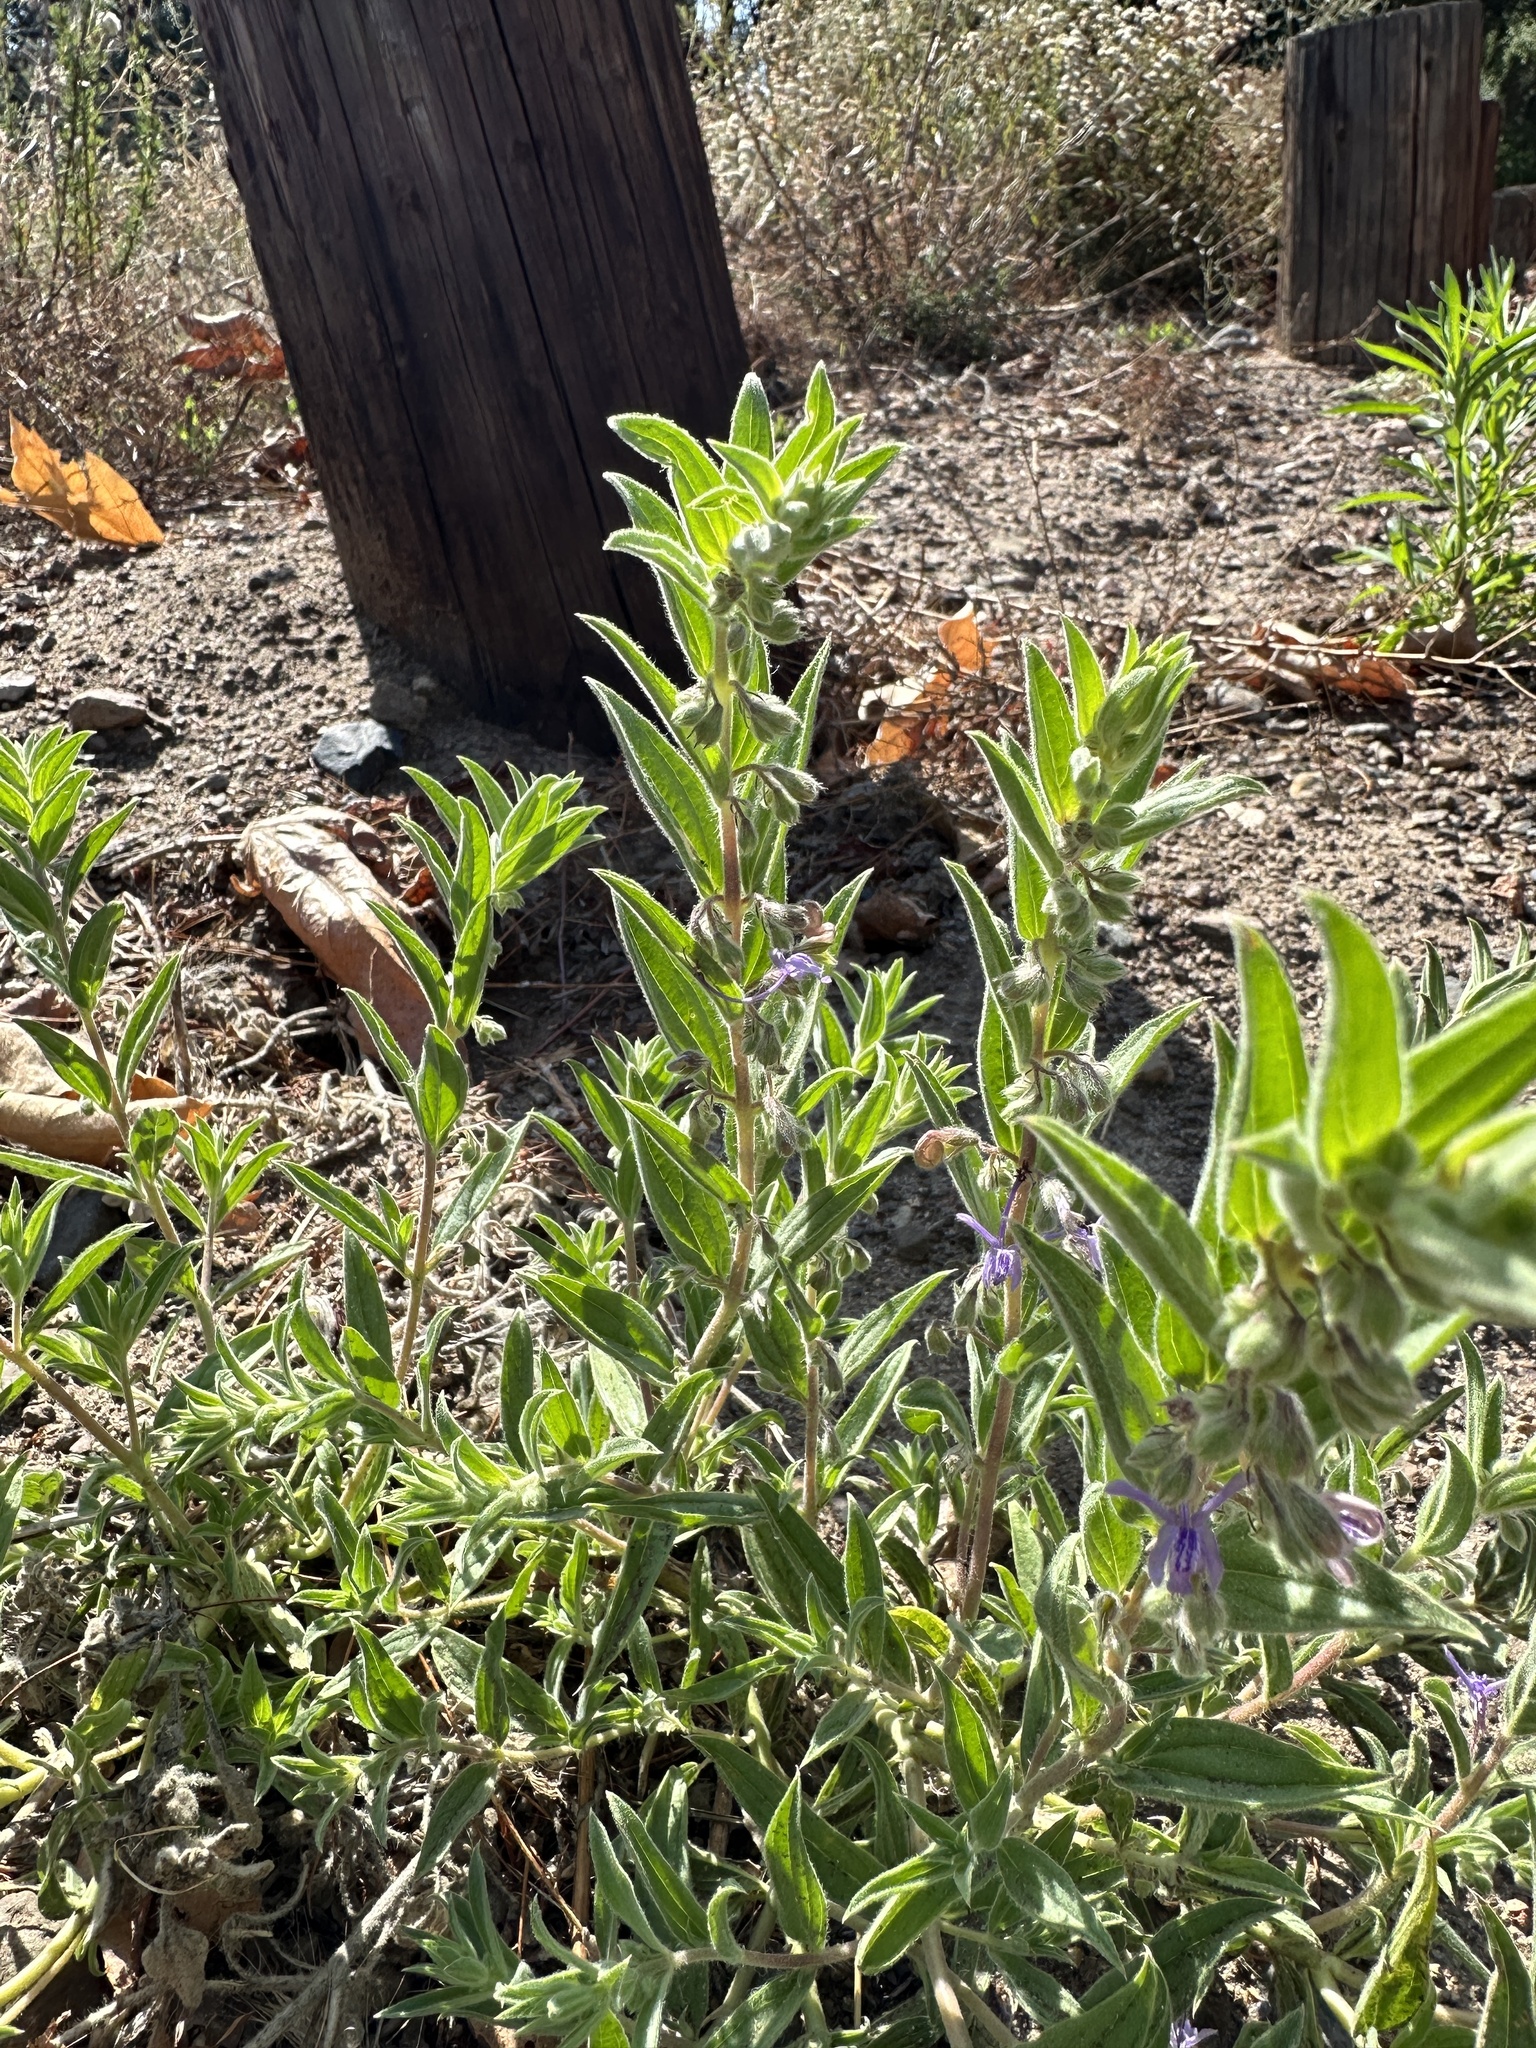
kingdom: Plantae
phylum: Tracheophyta
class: Magnoliopsida
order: Lamiales
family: Lamiaceae
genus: Trichostema
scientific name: Trichostema lanceolatum
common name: Vinegar-weed
